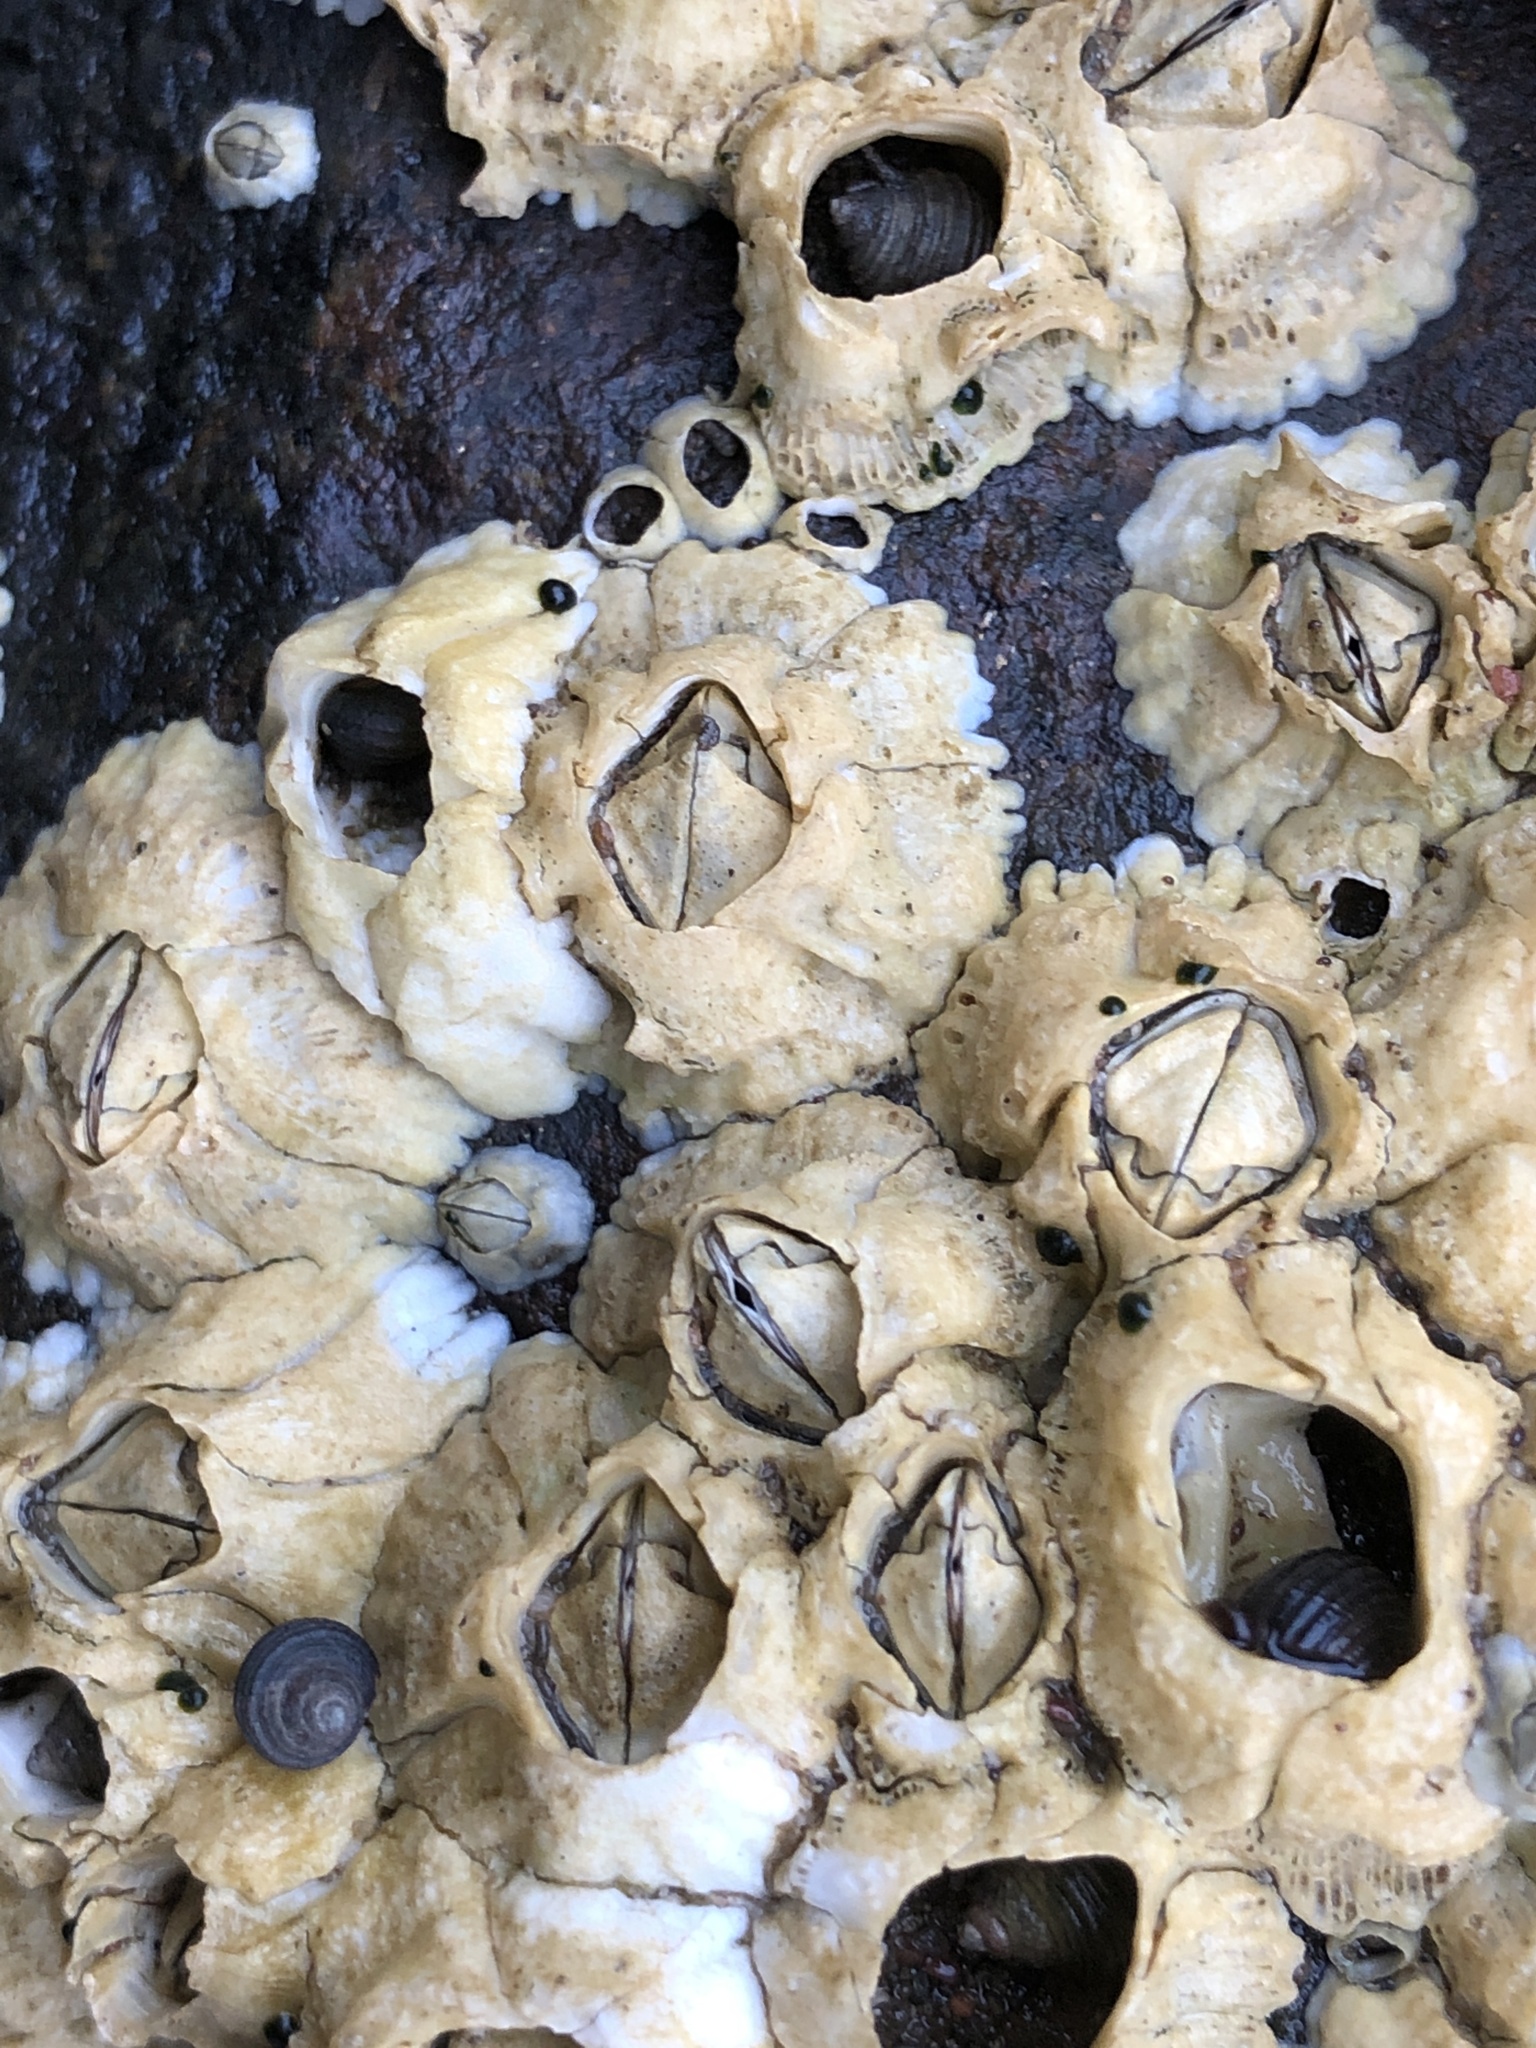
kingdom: Animalia
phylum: Arthropoda
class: Maxillopoda
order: Sessilia
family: Archaeobalanidae
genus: Semibalanus
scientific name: Semibalanus balanoides
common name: Acorn barnacle
